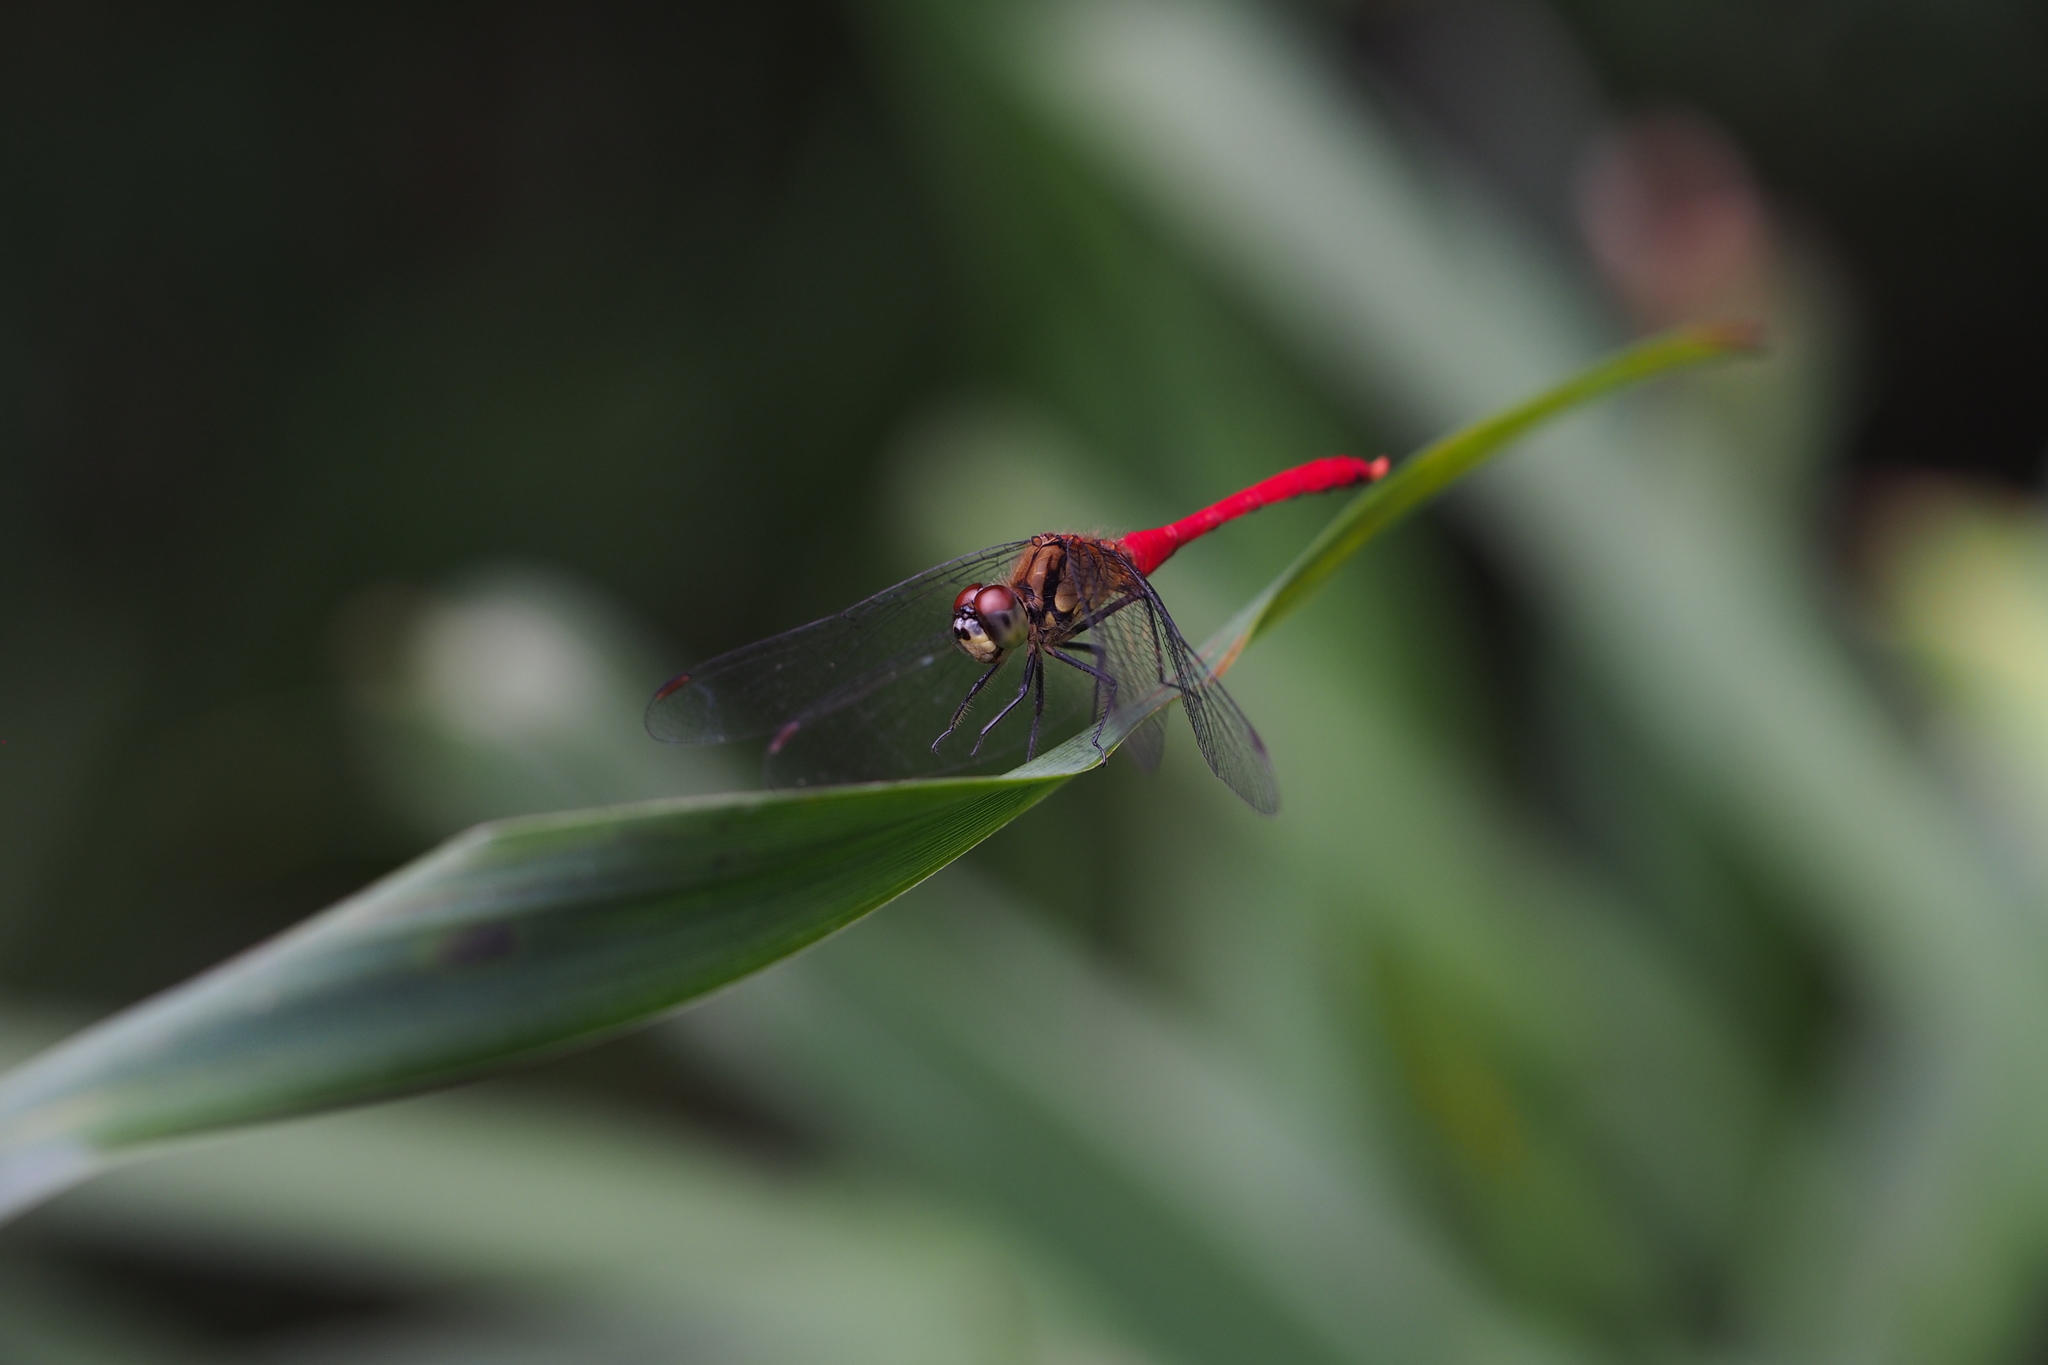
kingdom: Animalia
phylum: Arthropoda
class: Insecta
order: Odonata
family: Libellulidae
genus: Sympetrum
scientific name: Sympetrum eroticum
